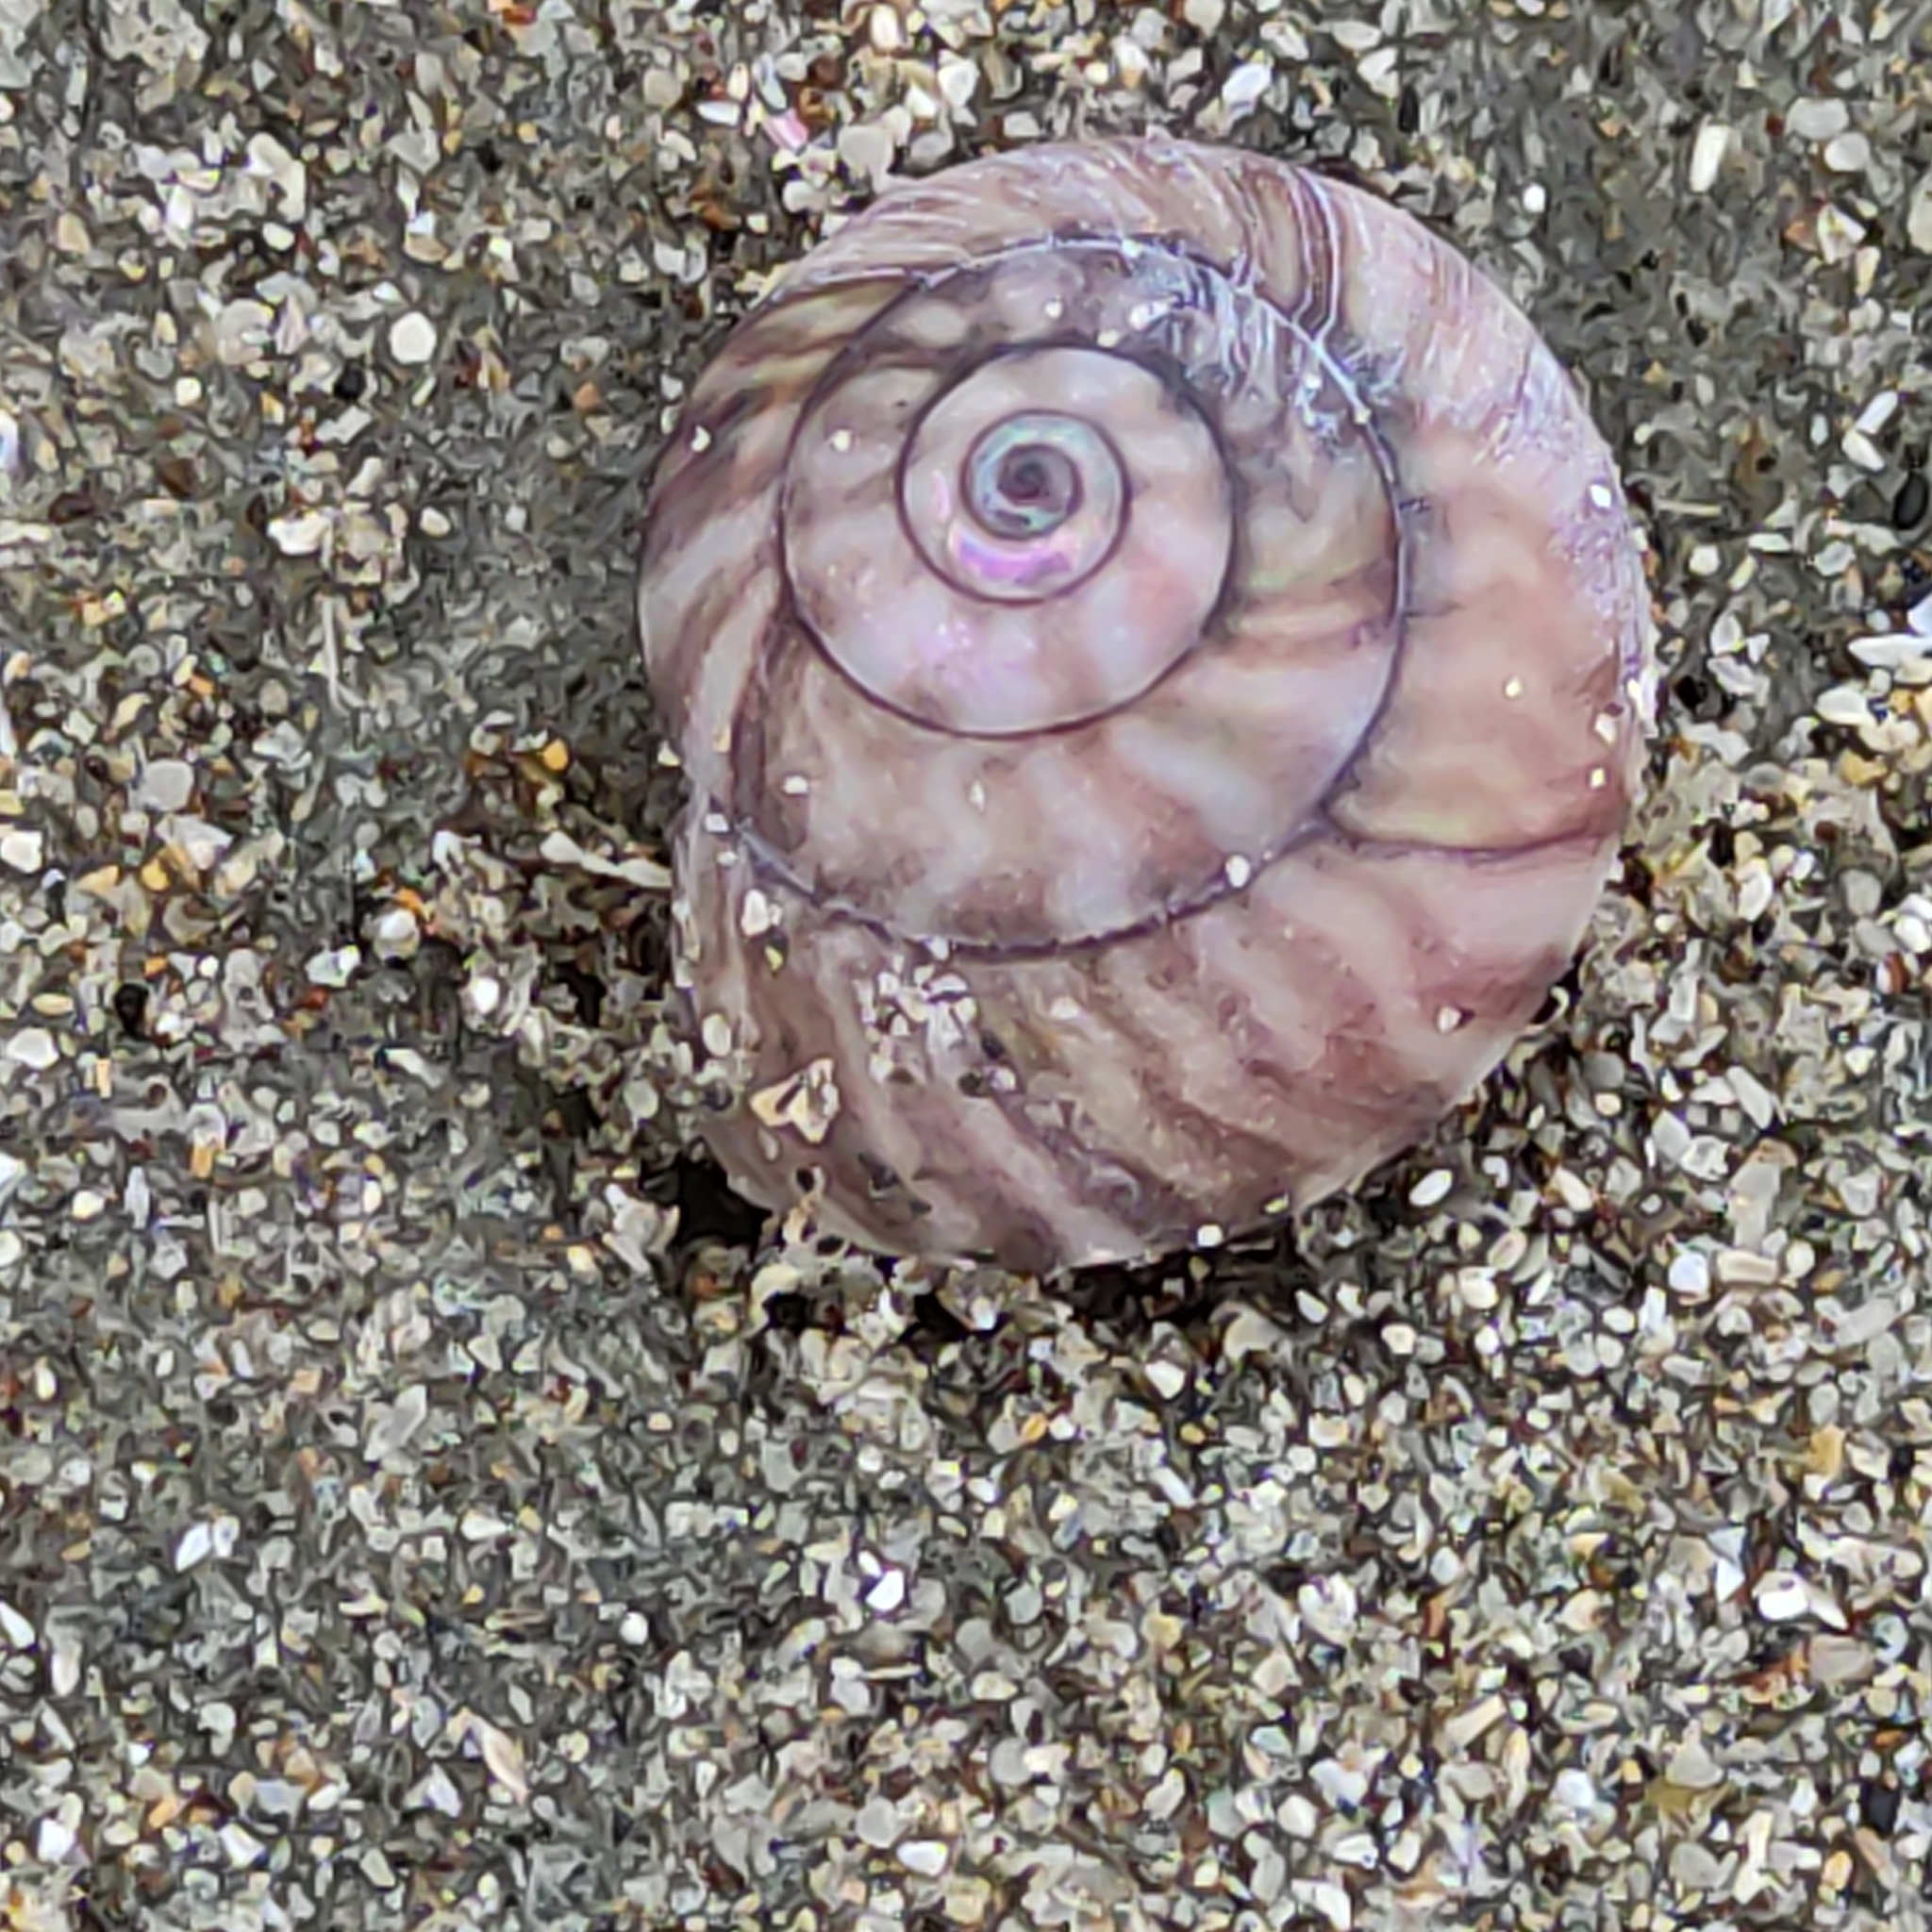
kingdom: Animalia
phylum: Mollusca
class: Gastropoda
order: Trochida
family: Trochidae
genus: Zethalia
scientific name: Zethalia zelandica
